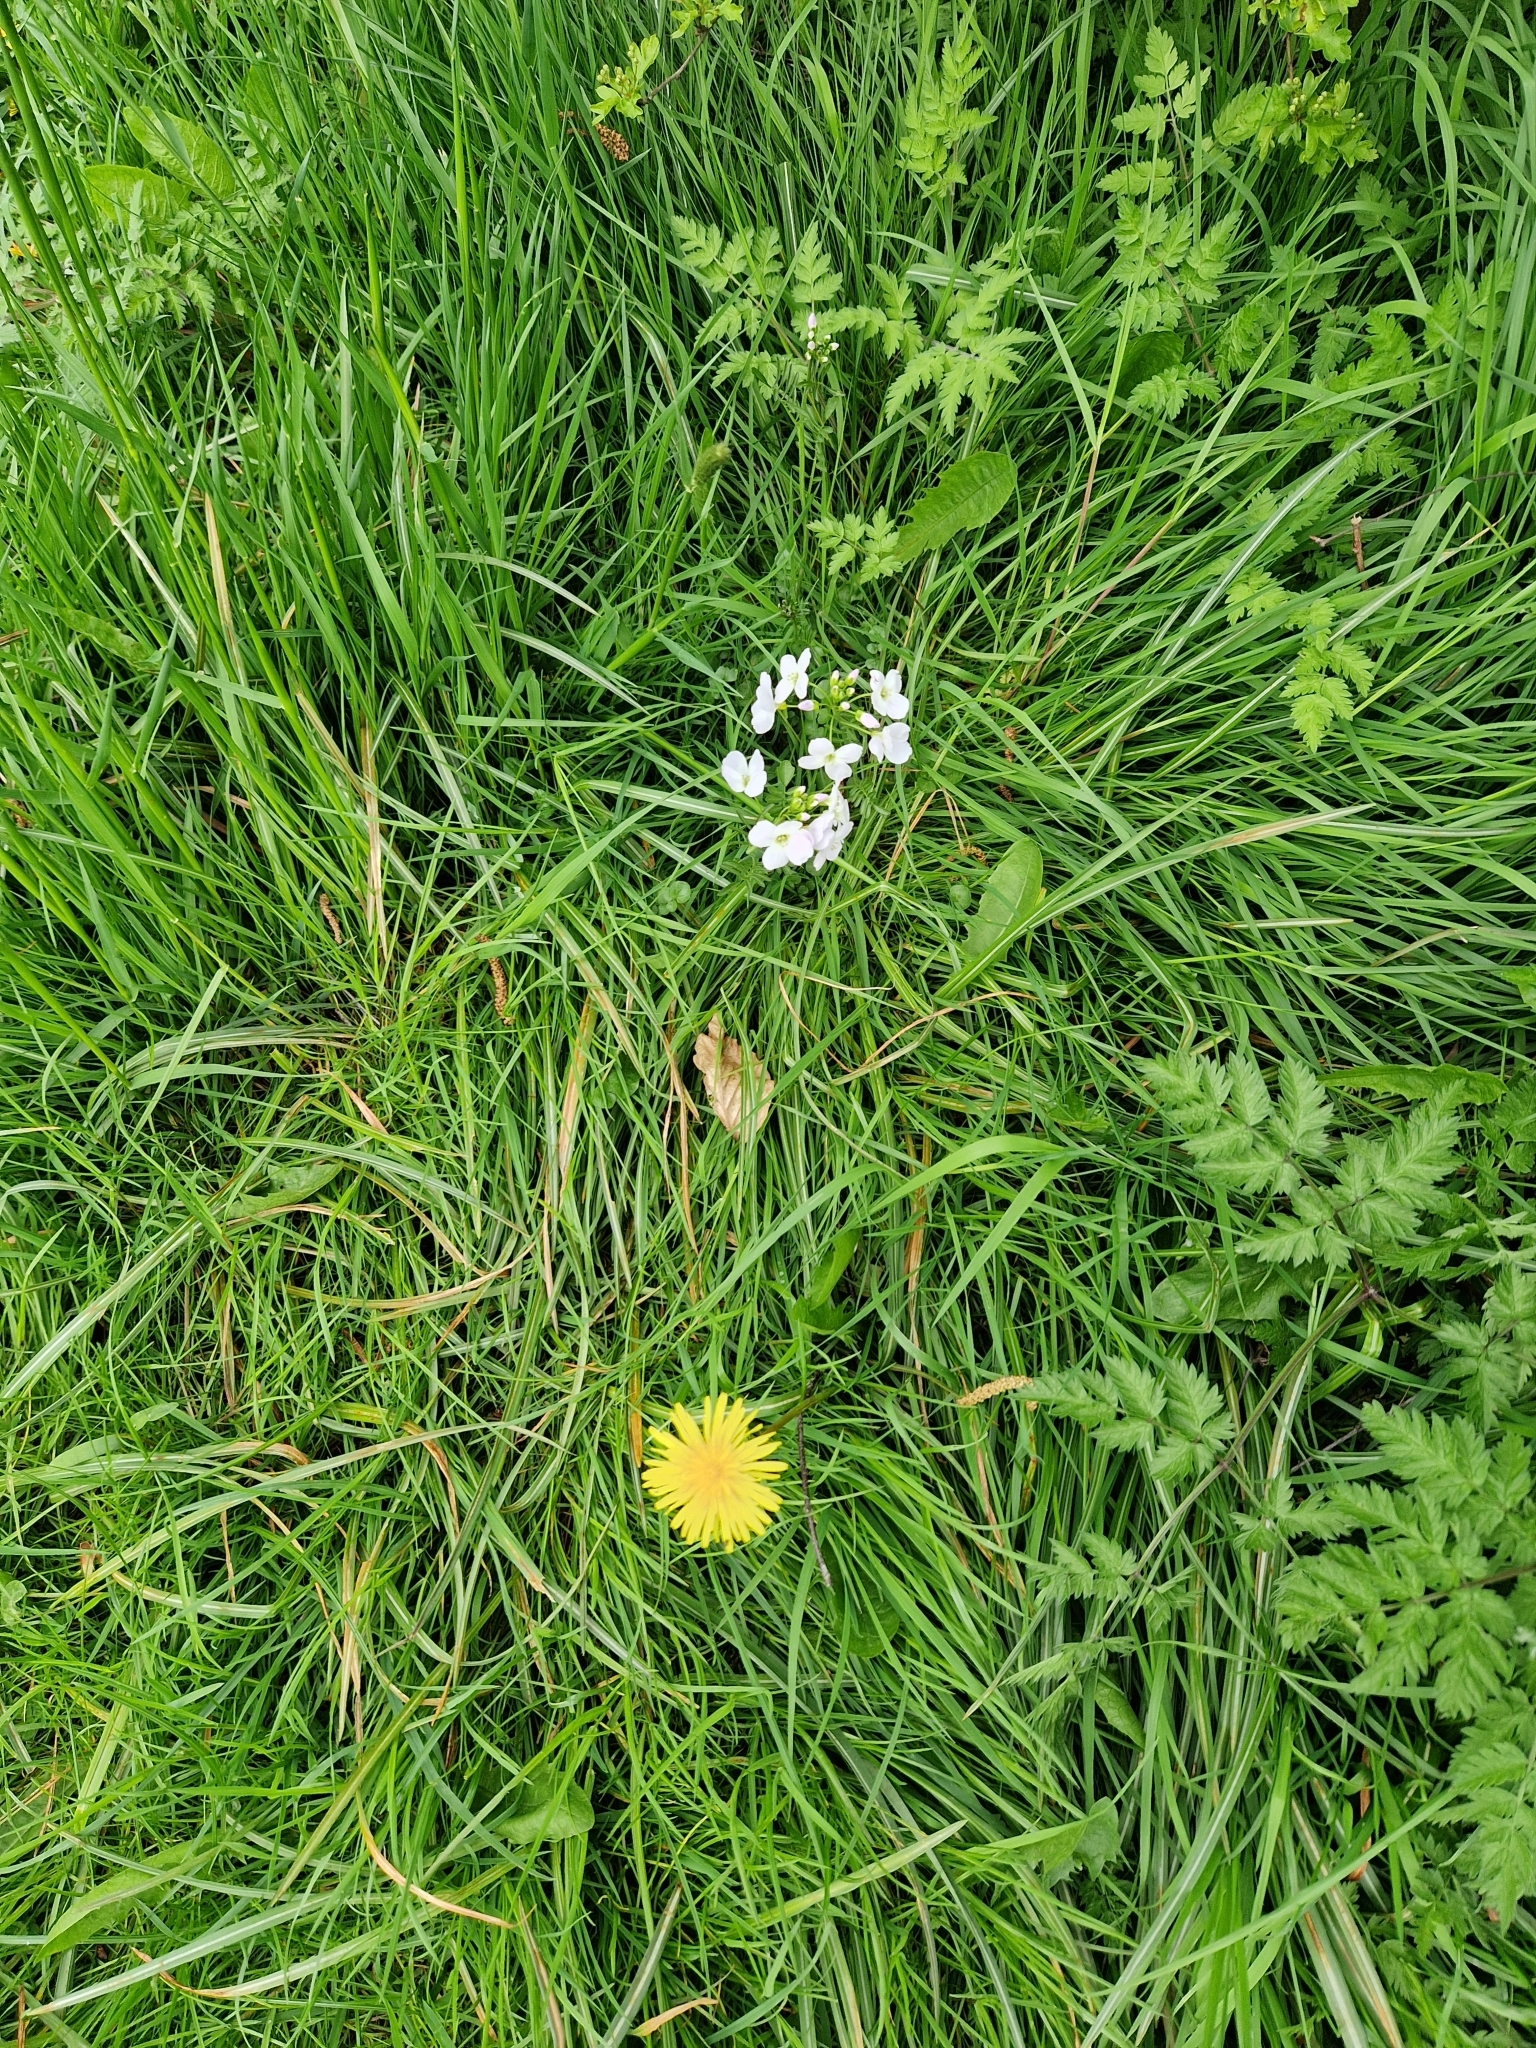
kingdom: Plantae
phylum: Tracheophyta
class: Magnoliopsida
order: Brassicales
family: Brassicaceae
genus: Cardamine
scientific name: Cardamine pratensis
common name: Cuckoo flower
